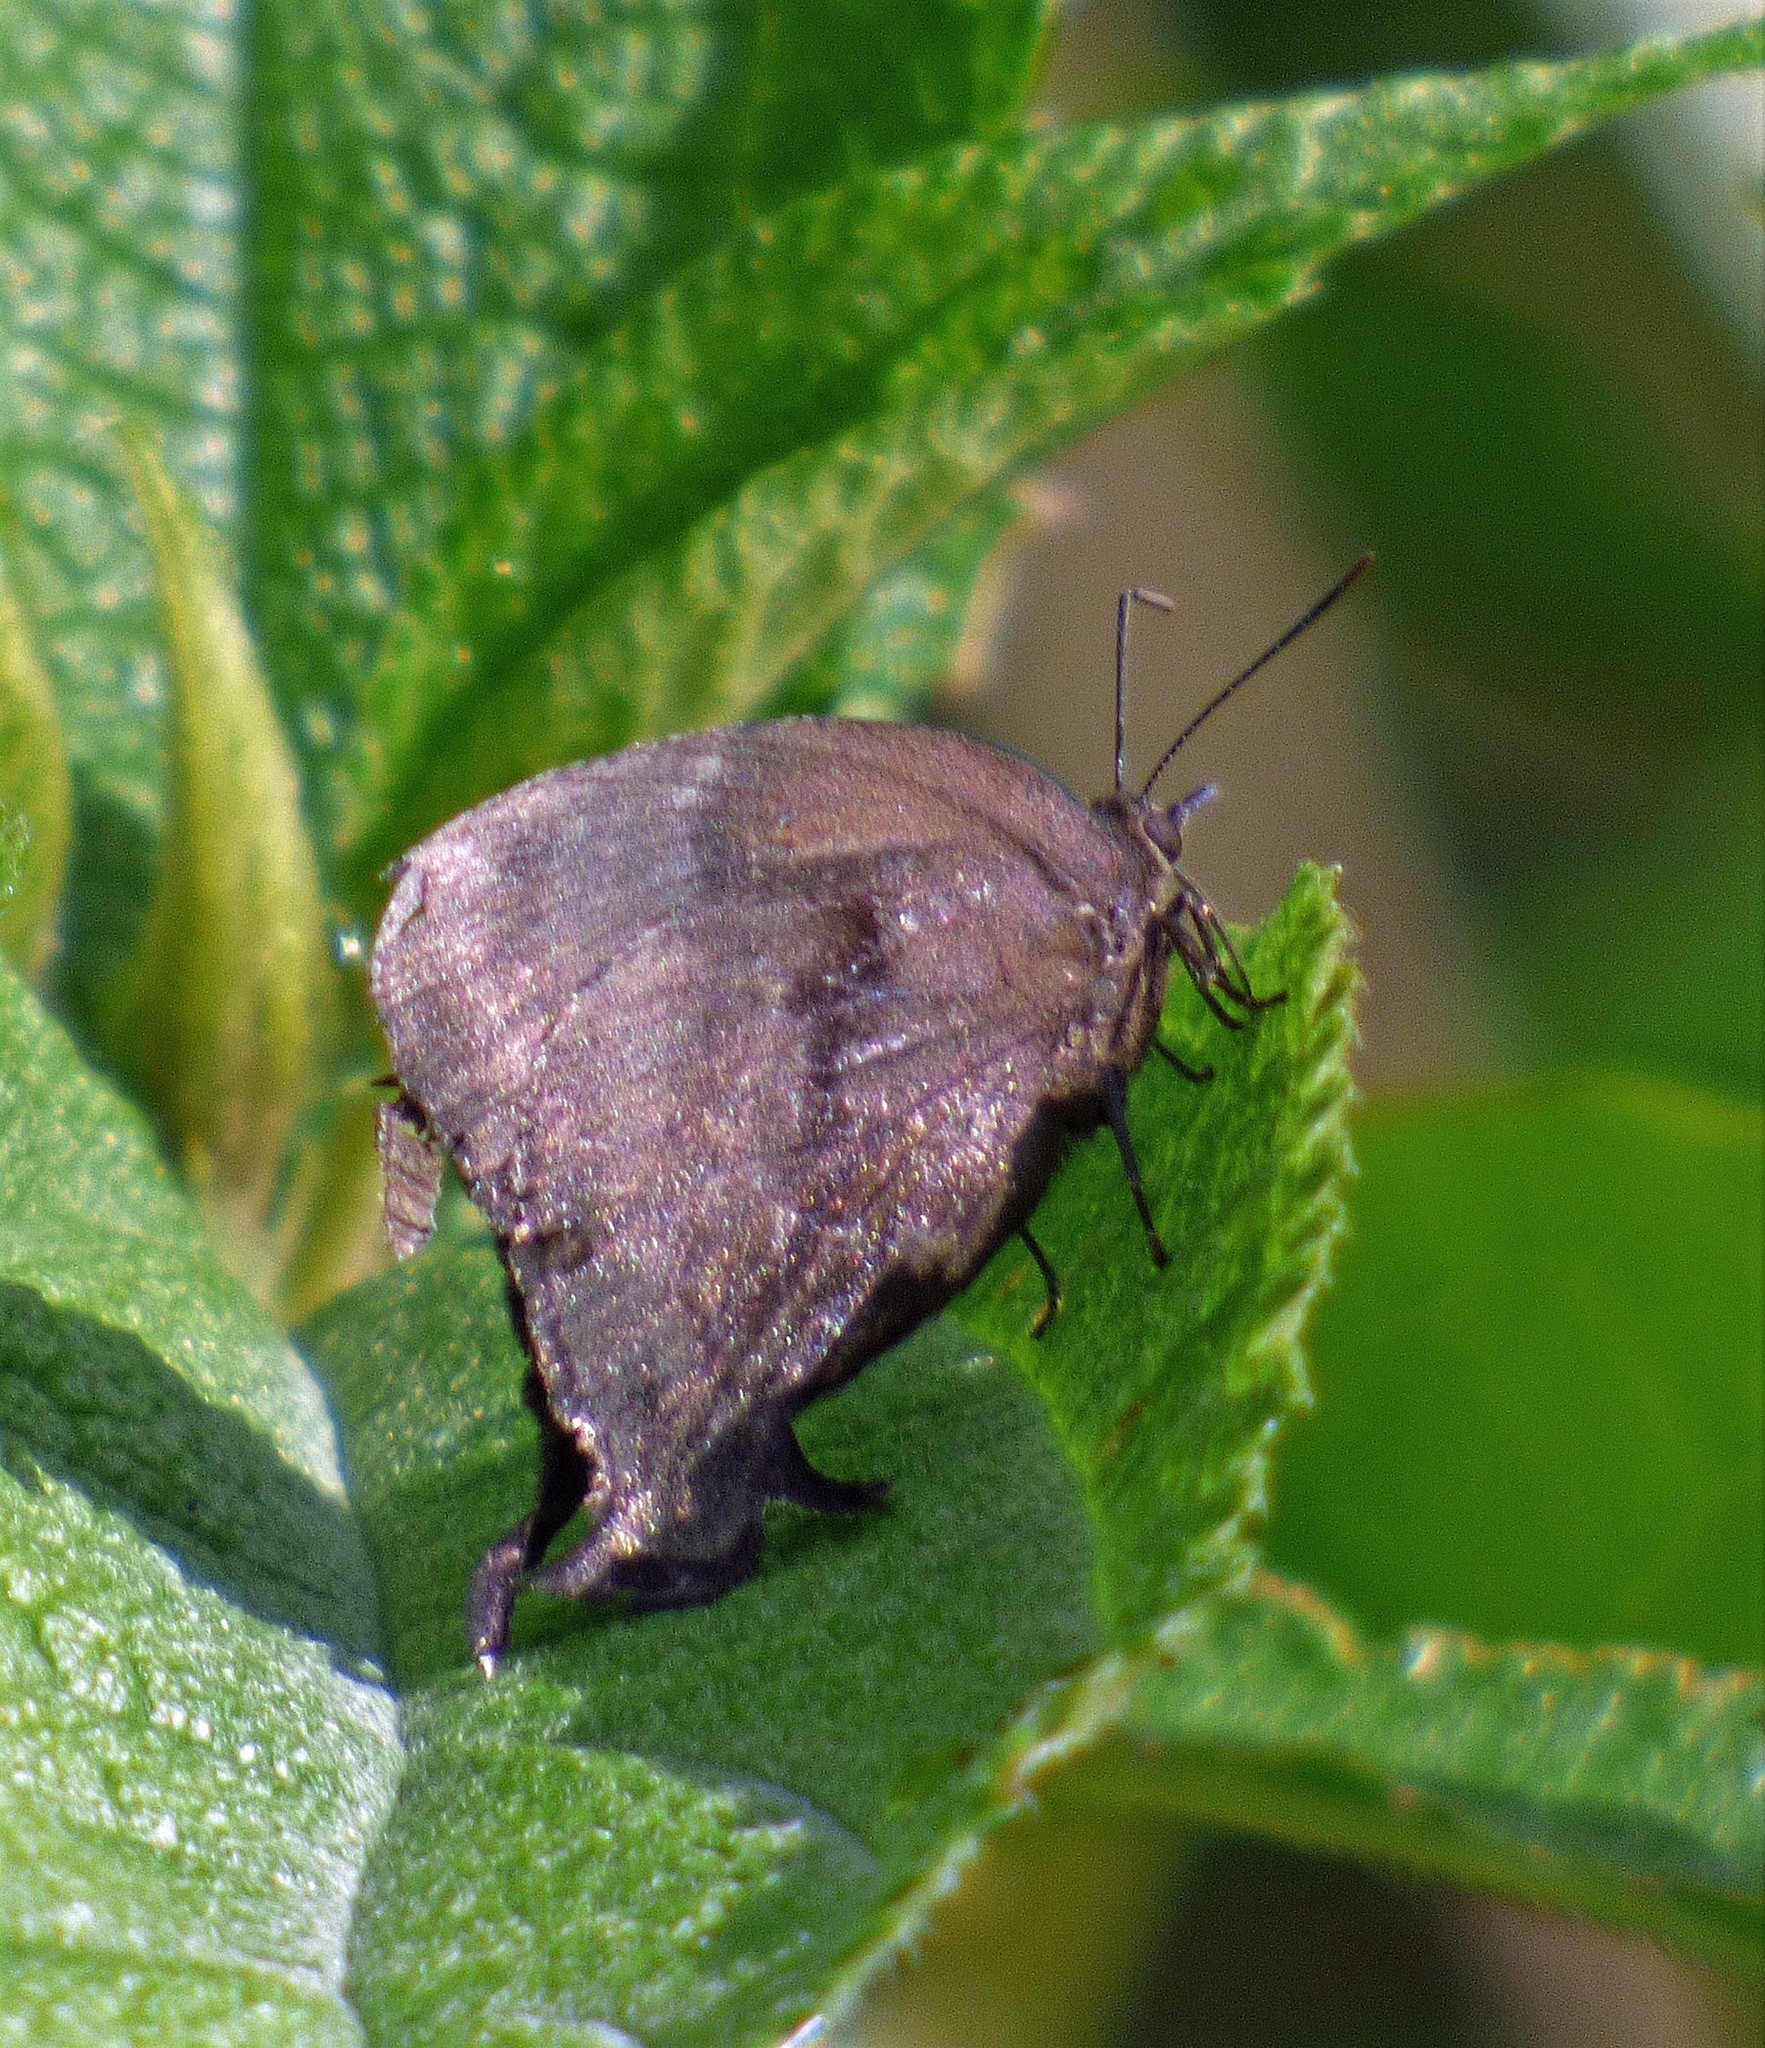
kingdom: Animalia
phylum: Arthropoda
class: Insecta
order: Lepidoptera
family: Lycaenidae
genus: Denivia
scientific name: Denivia
